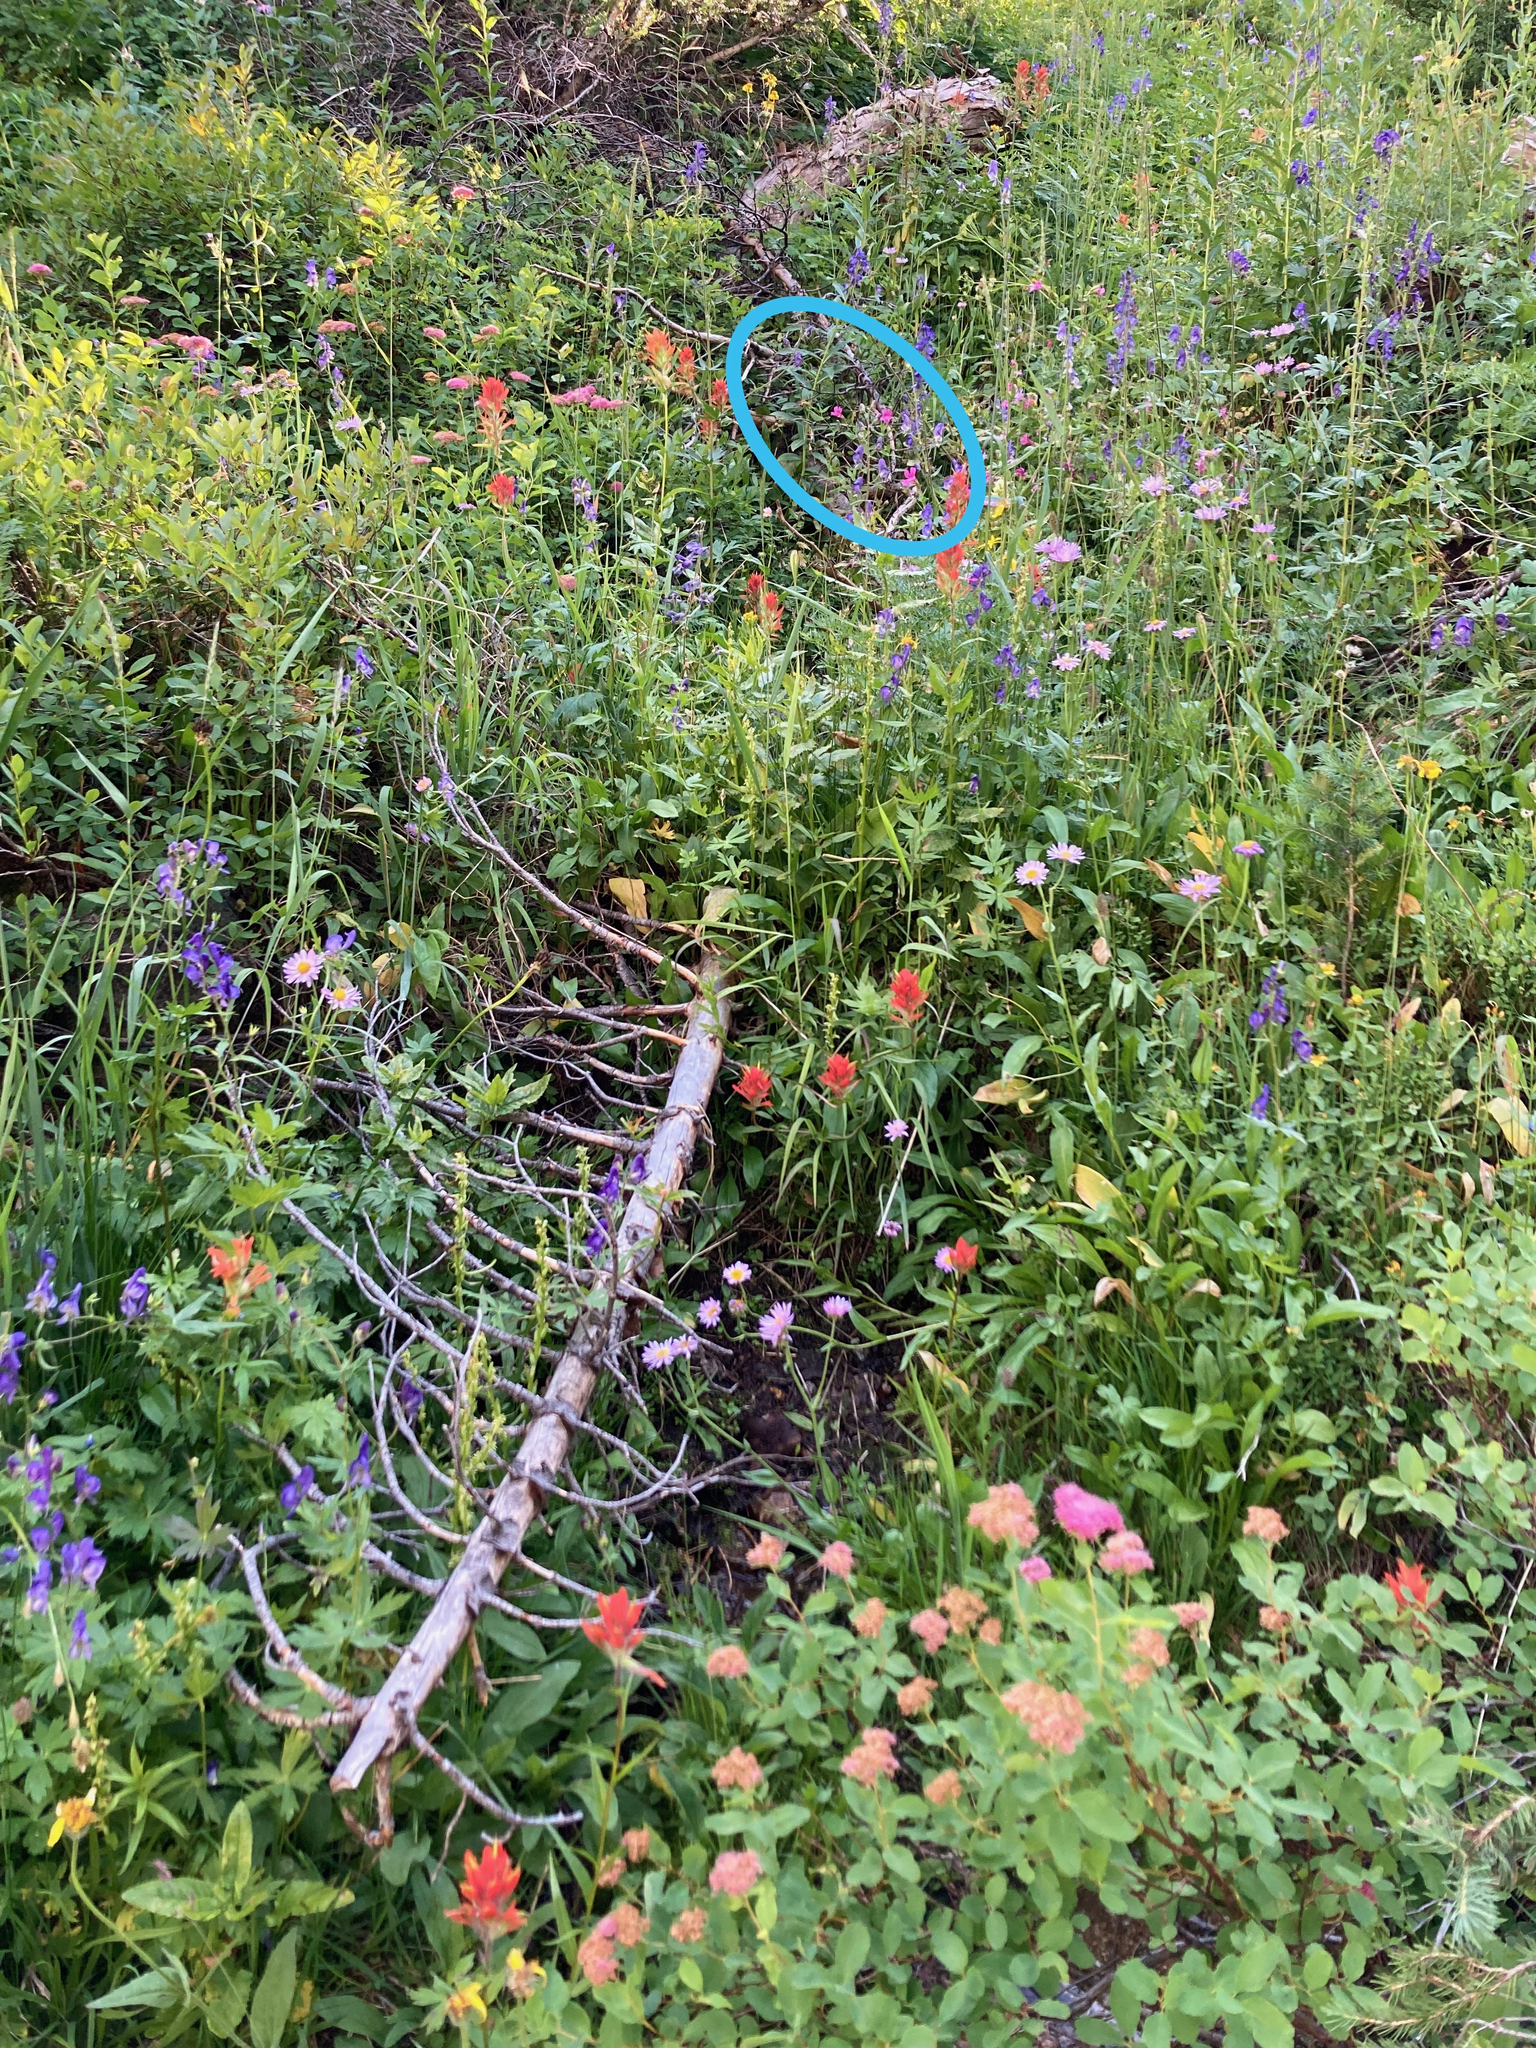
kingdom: Plantae
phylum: Tracheophyta
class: Magnoliopsida
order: Lamiales
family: Phrymaceae
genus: Erythranthe
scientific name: Erythranthe lewisii
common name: Lewis's monkey-flower
